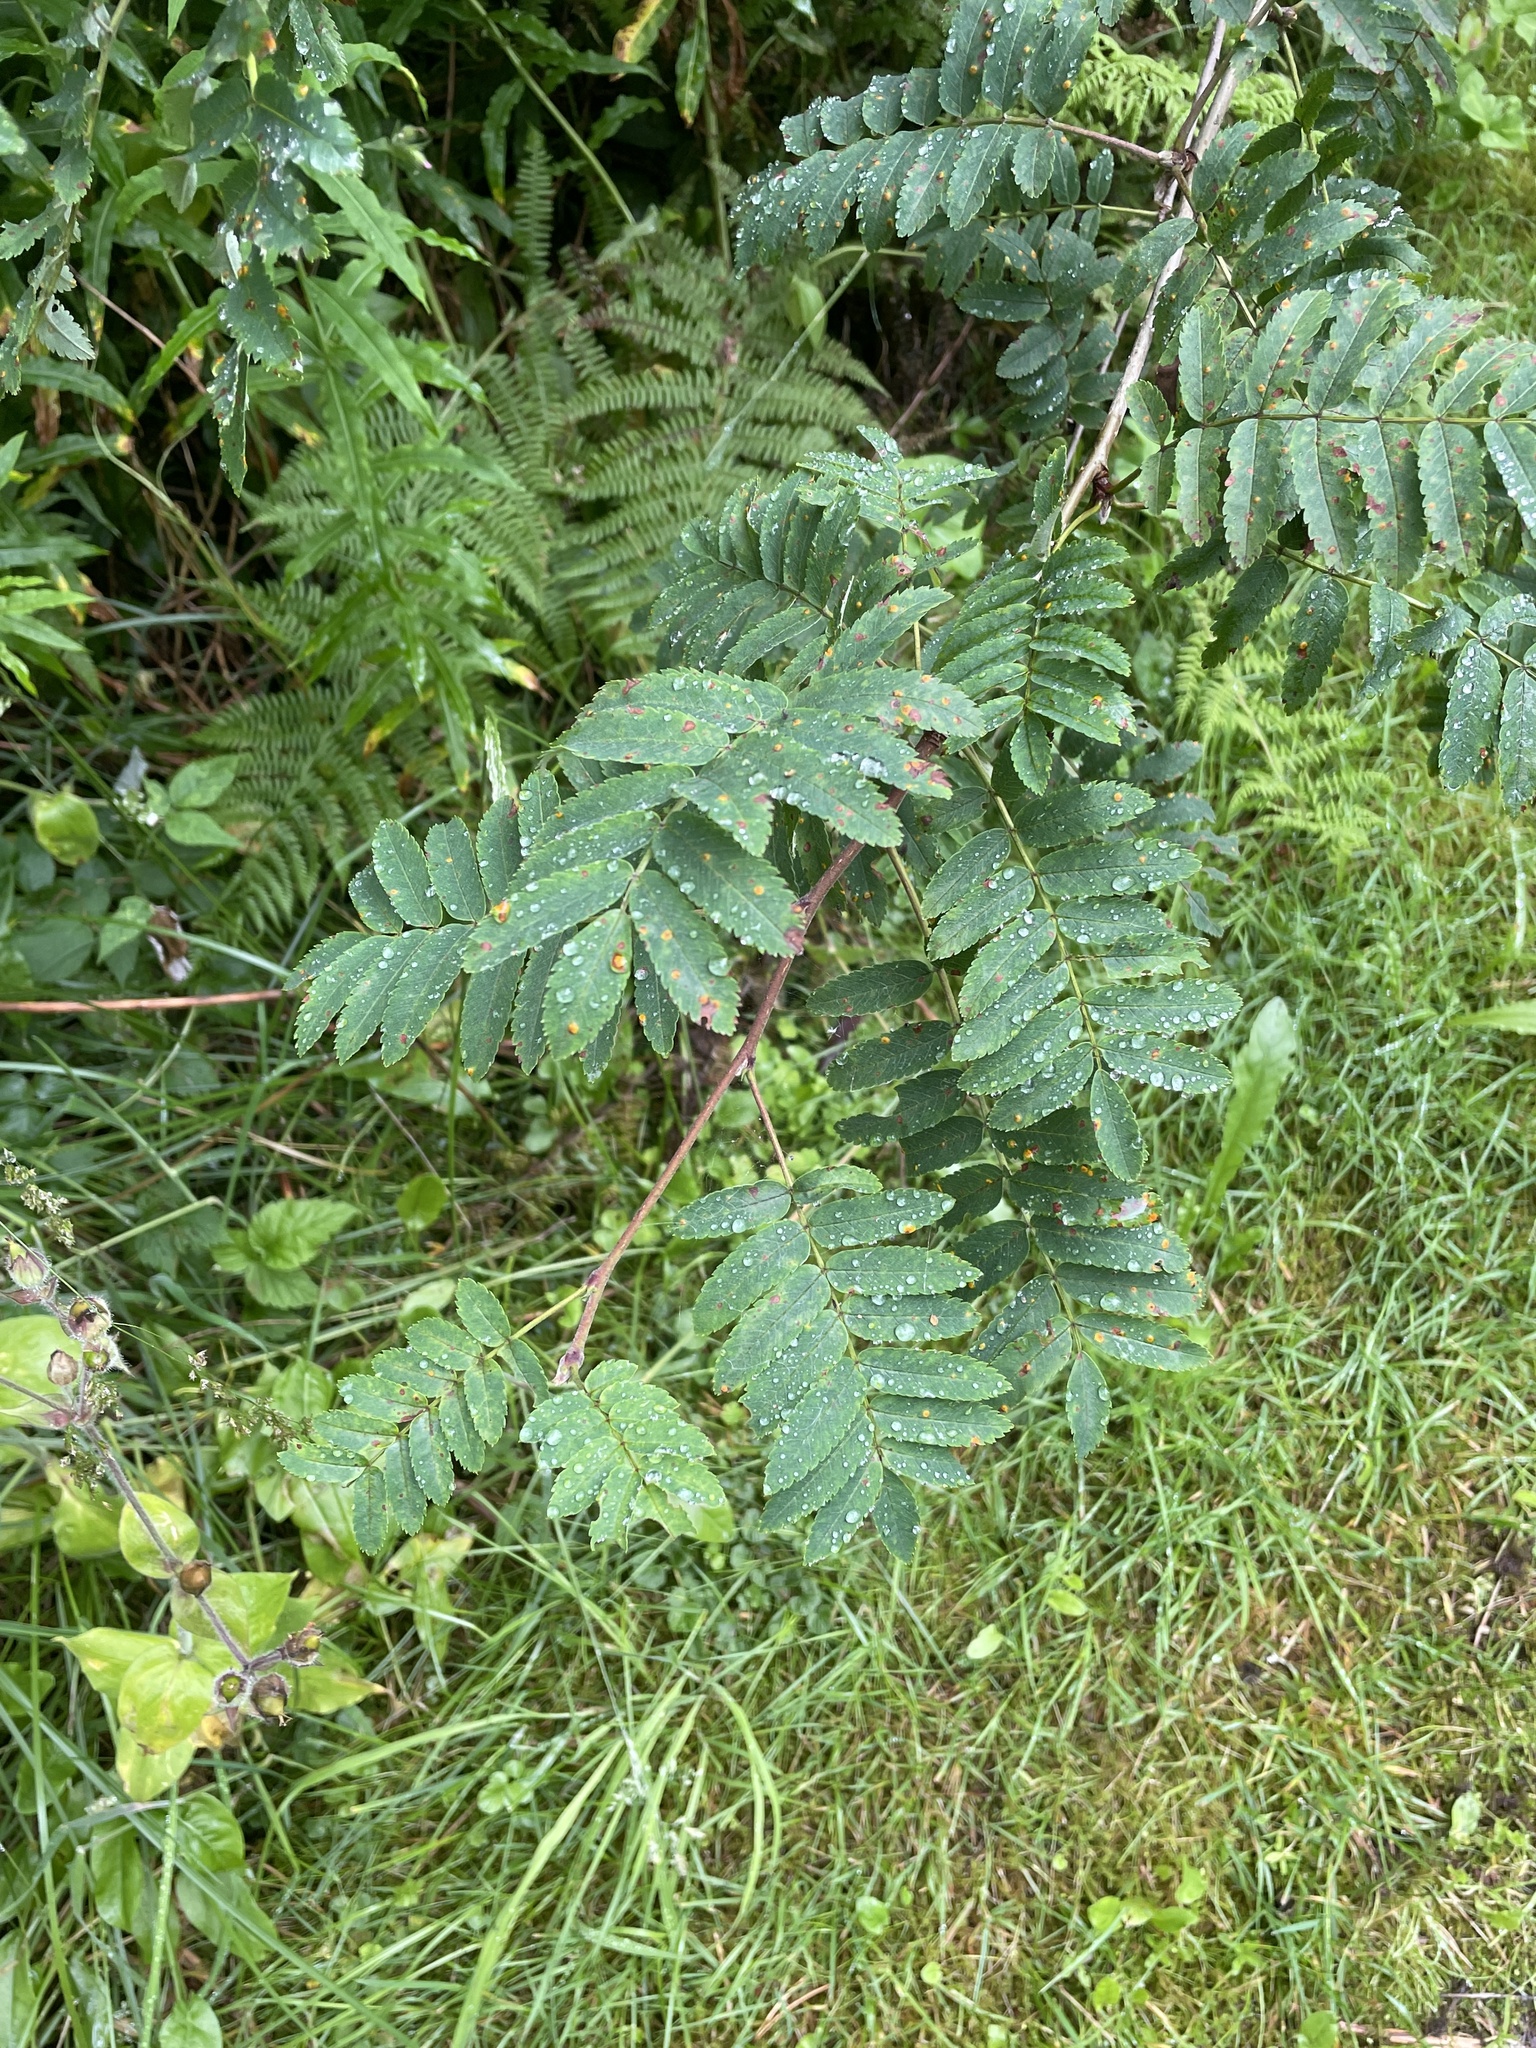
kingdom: Plantae
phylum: Tracheophyta
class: Magnoliopsida
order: Rosales
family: Rosaceae
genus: Sorbus
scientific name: Sorbus aucuparia
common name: Rowan
